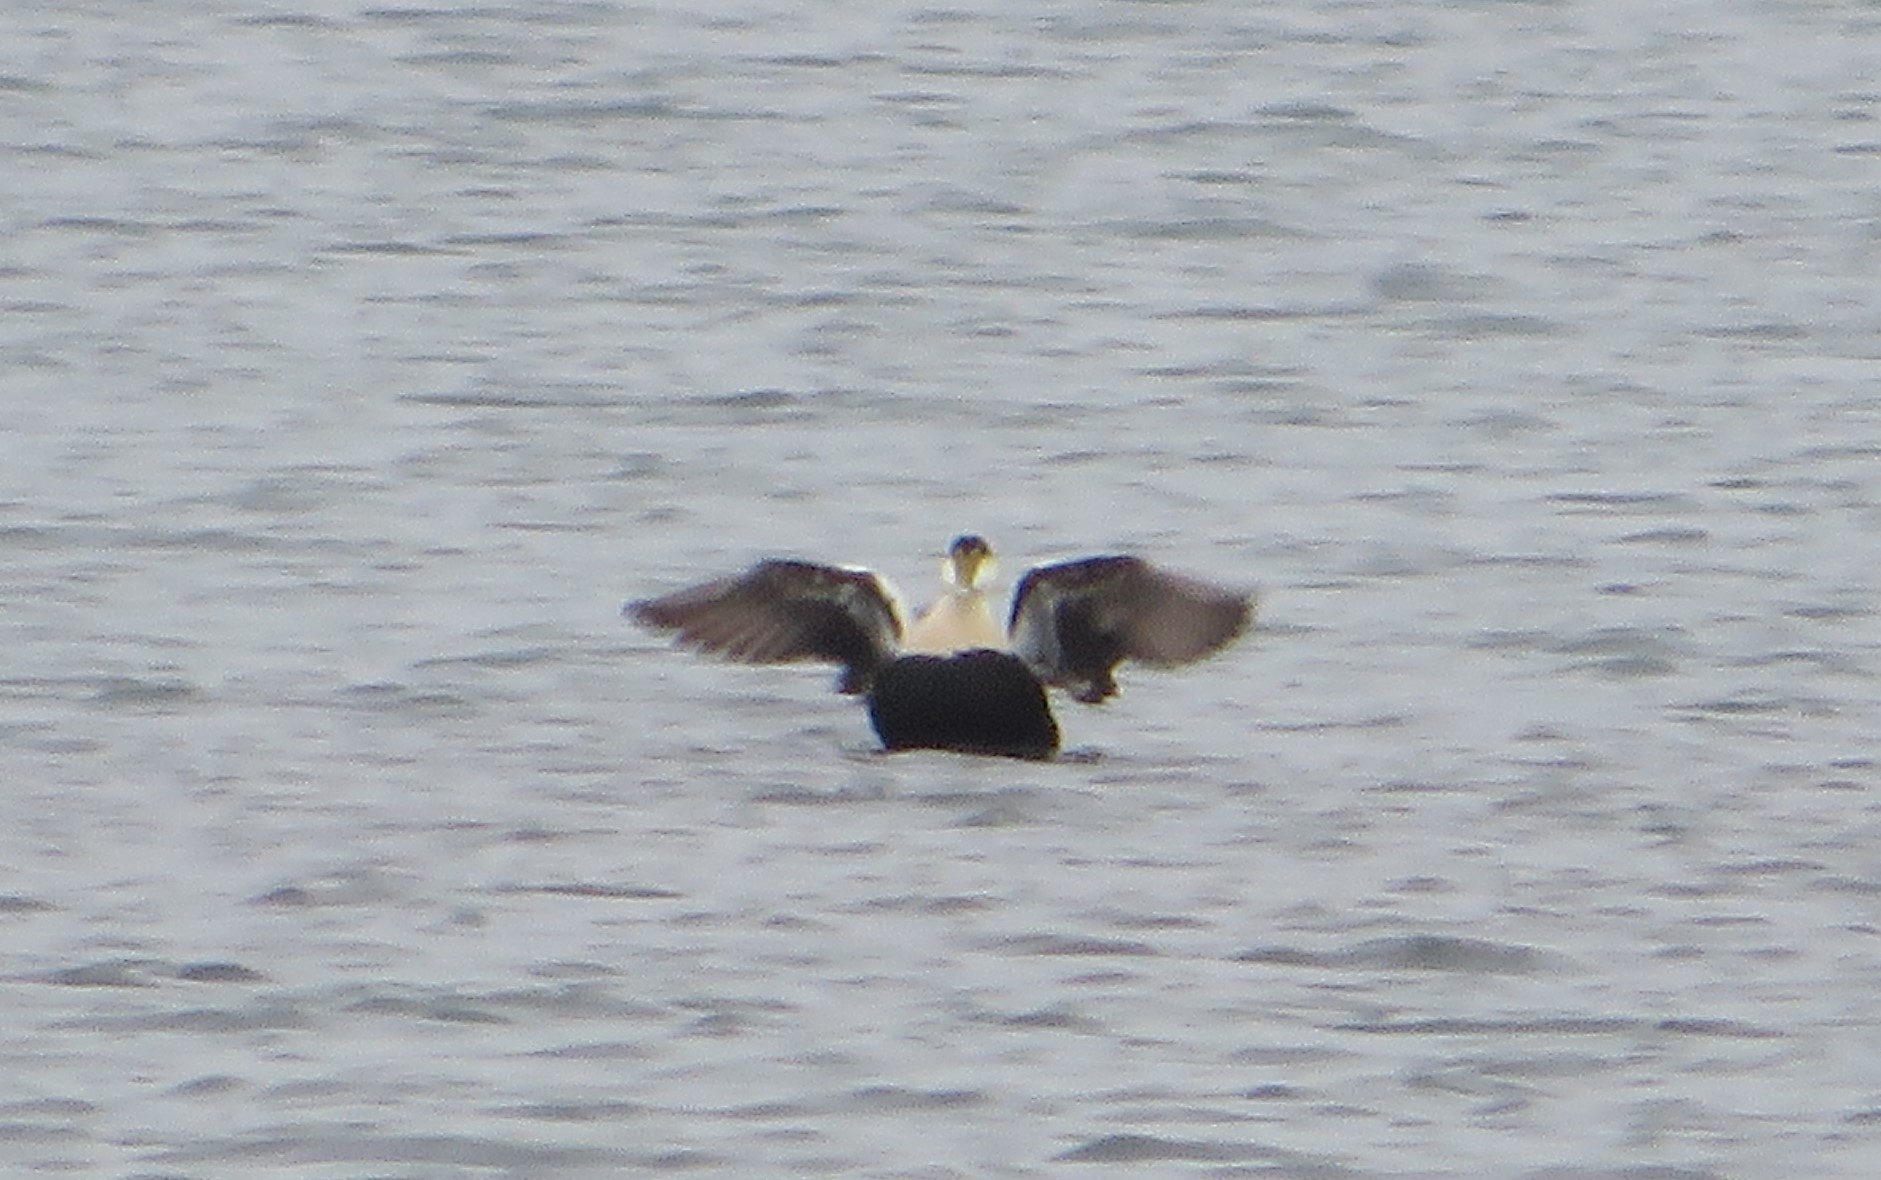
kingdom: Animalia
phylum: Chordata
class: Aves
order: Anseriformes
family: Anatidae
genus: Somateria
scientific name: Somateria mollissima
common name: Common eider
